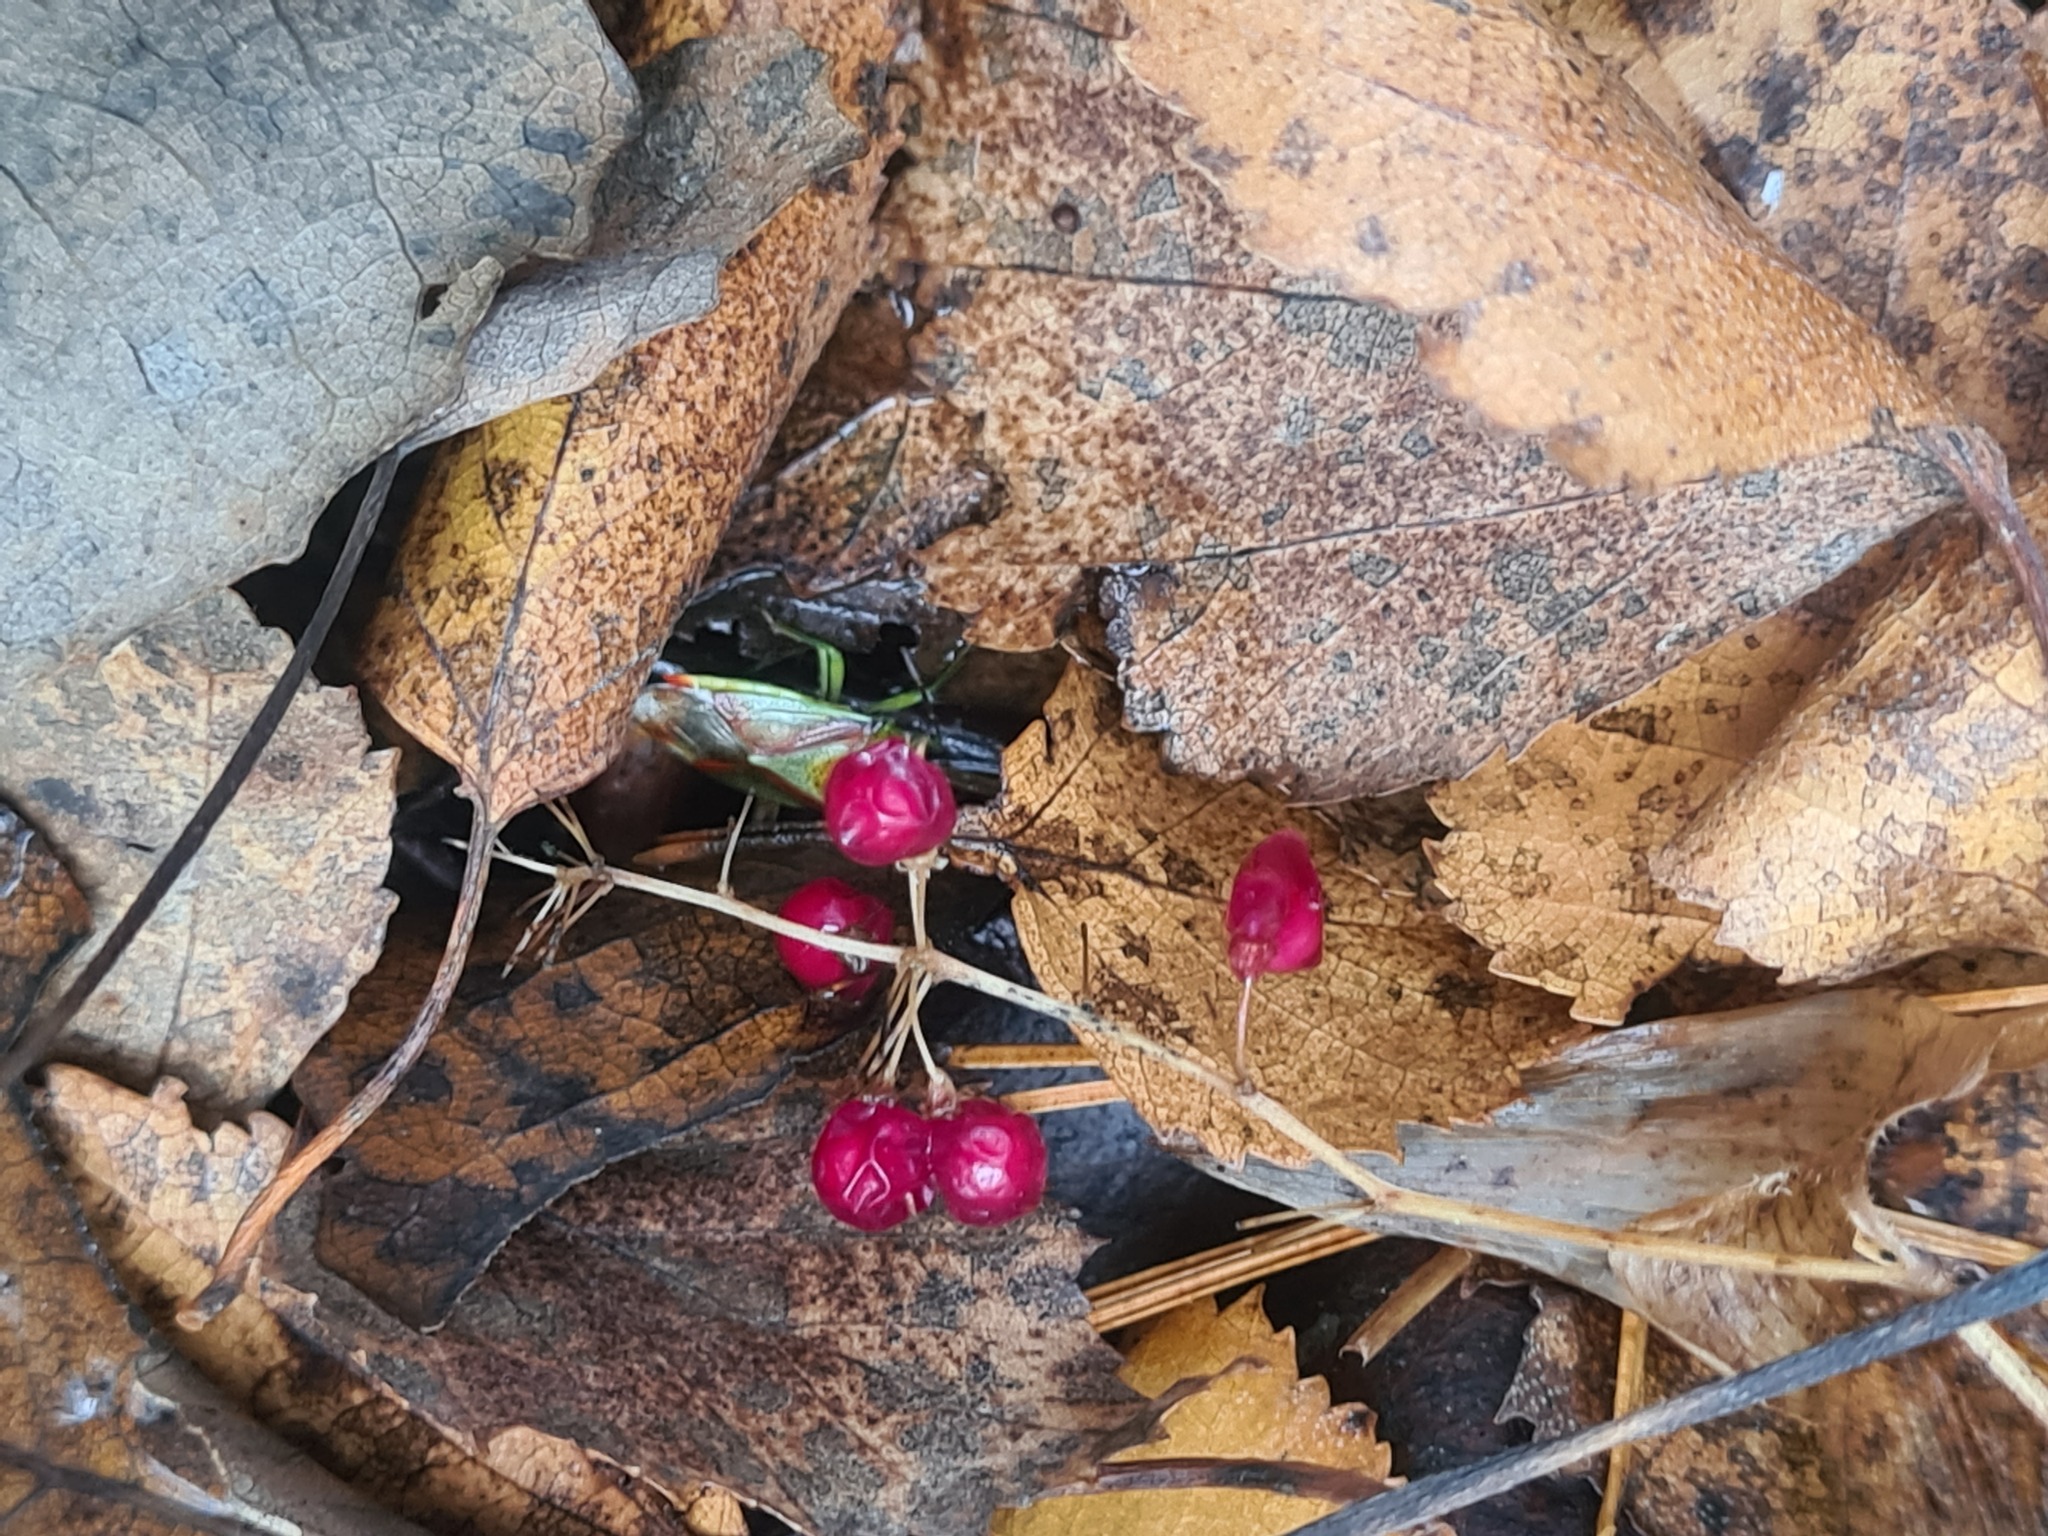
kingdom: Plantae
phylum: Tracheophyta
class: Liliopsida
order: Asparagales
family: Asparagaceae
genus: Maianthemum
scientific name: Maianthemum bifolium
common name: May lily
